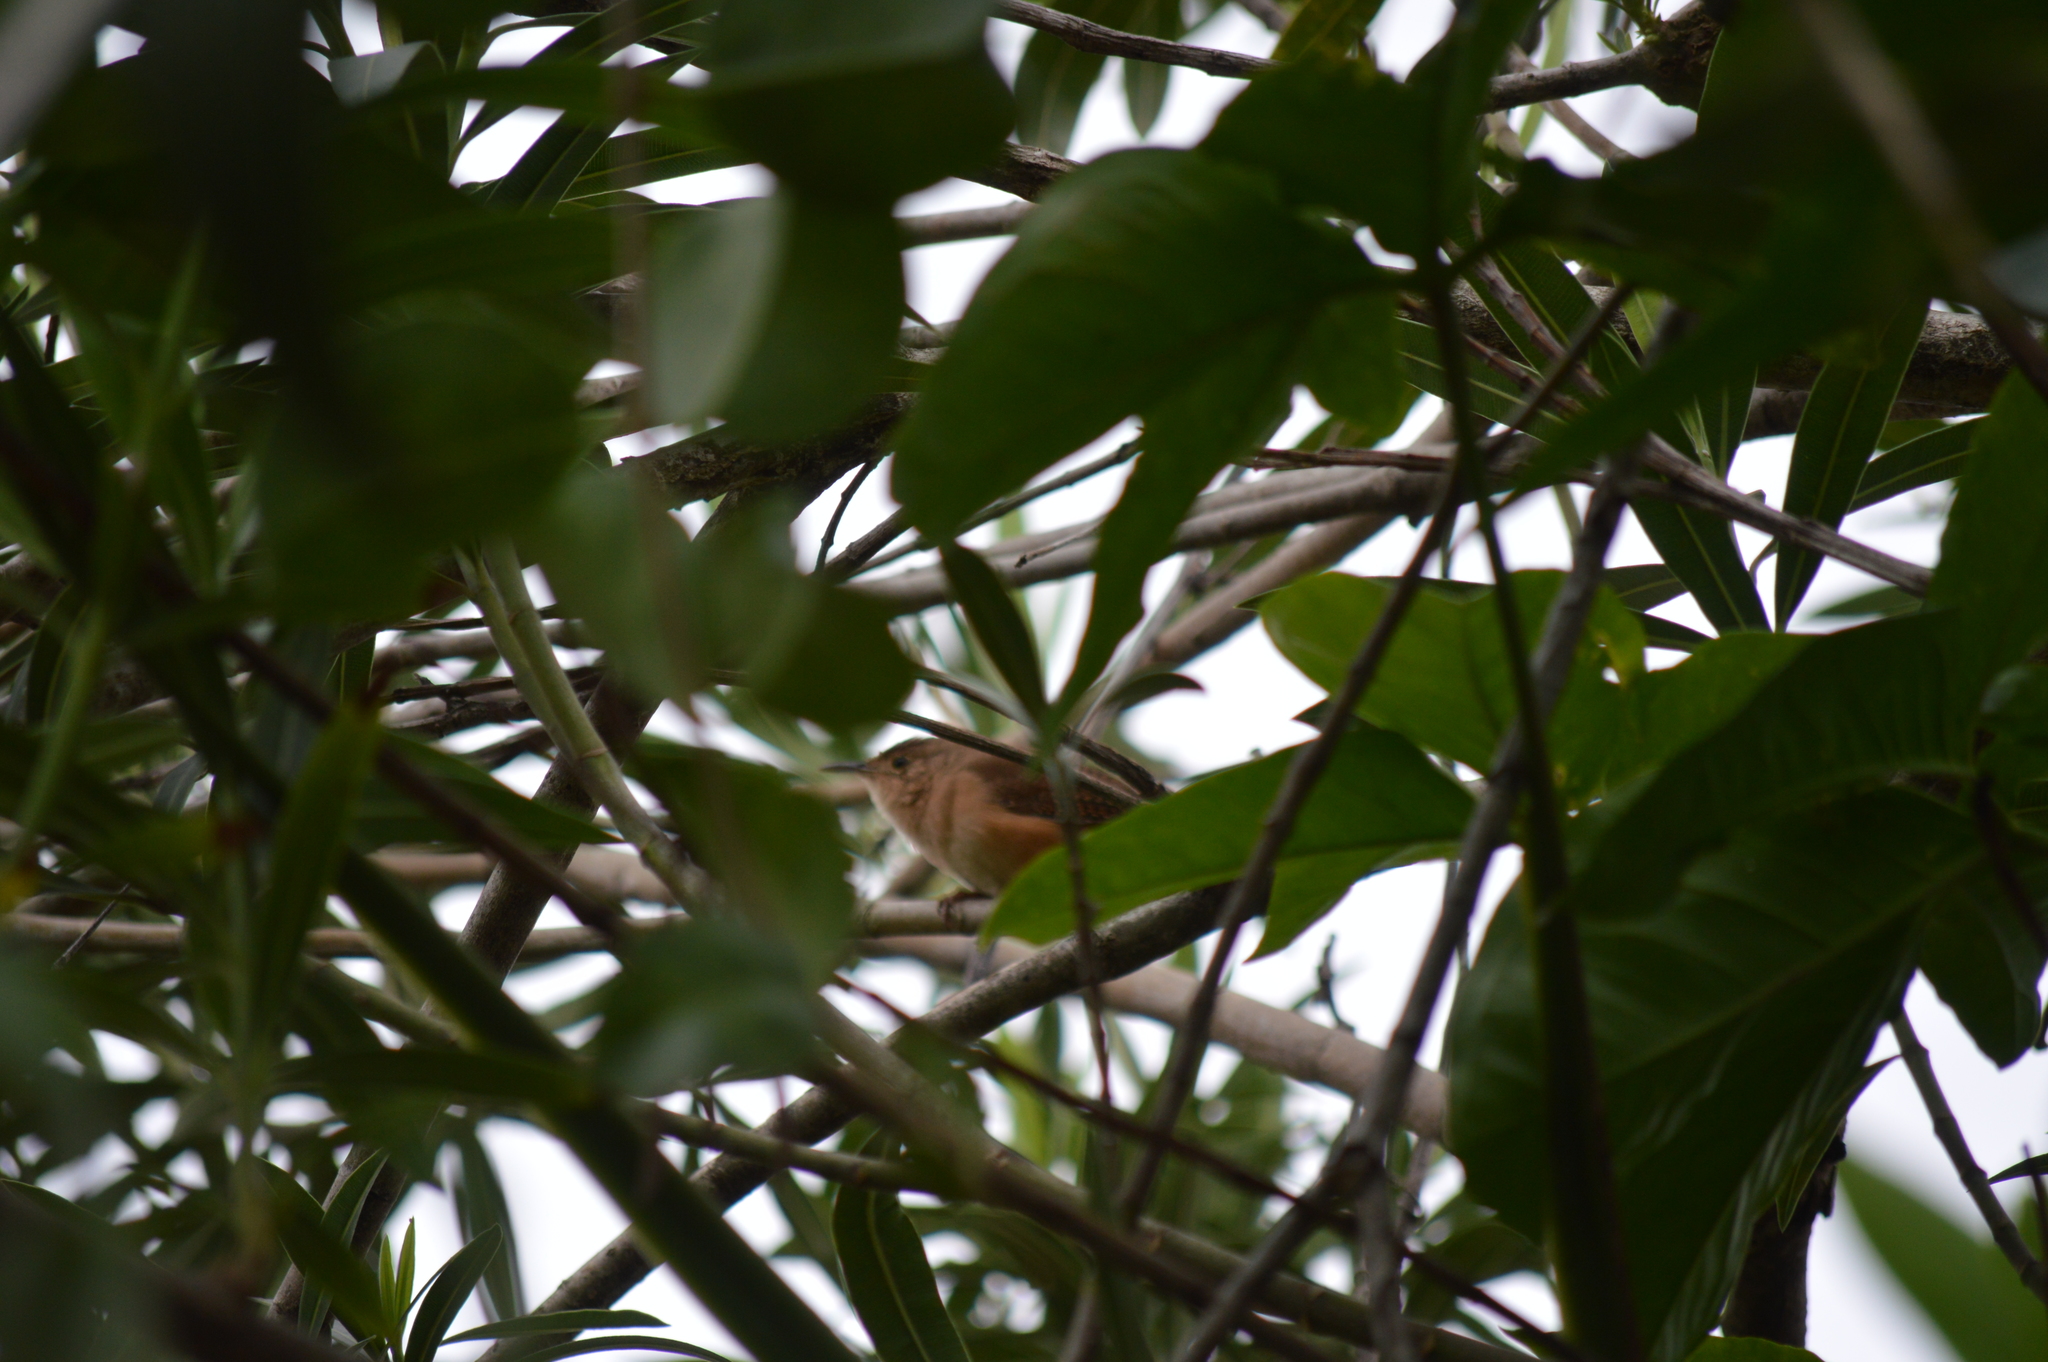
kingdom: Animalia
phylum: Chordata
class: Aves
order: Passeriformes
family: Troglodytidae
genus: Troglodytes
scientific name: Troglodytes aedon
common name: House wren
